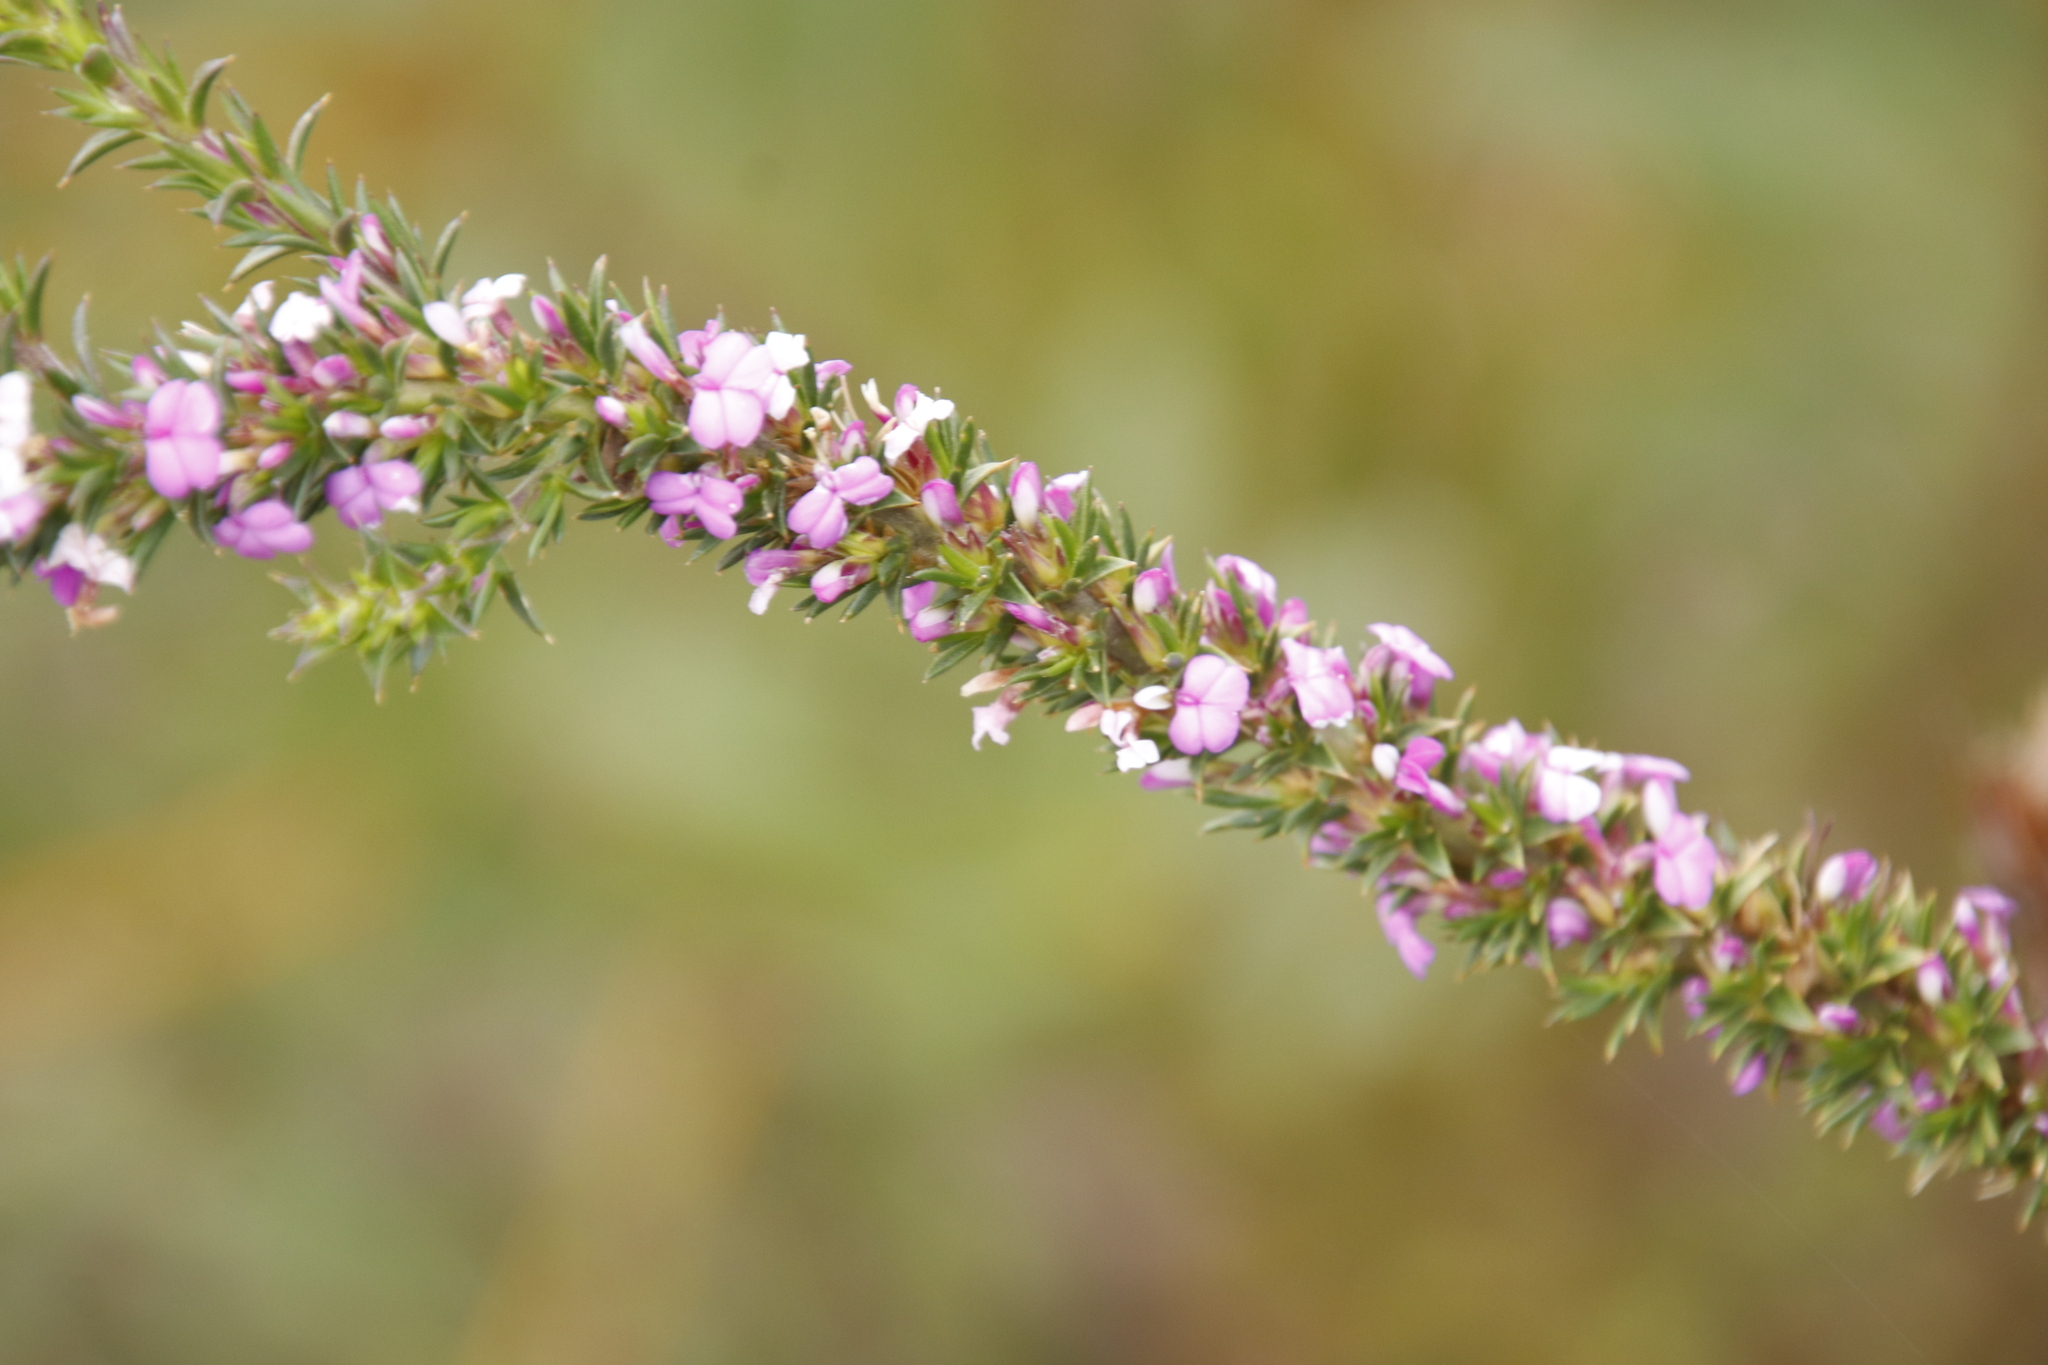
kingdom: Plantae
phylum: Tracheophyta
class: Magnoliopsida
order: Fabales
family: Polygalaceae
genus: Muraltia
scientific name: Muraltia heisteria
